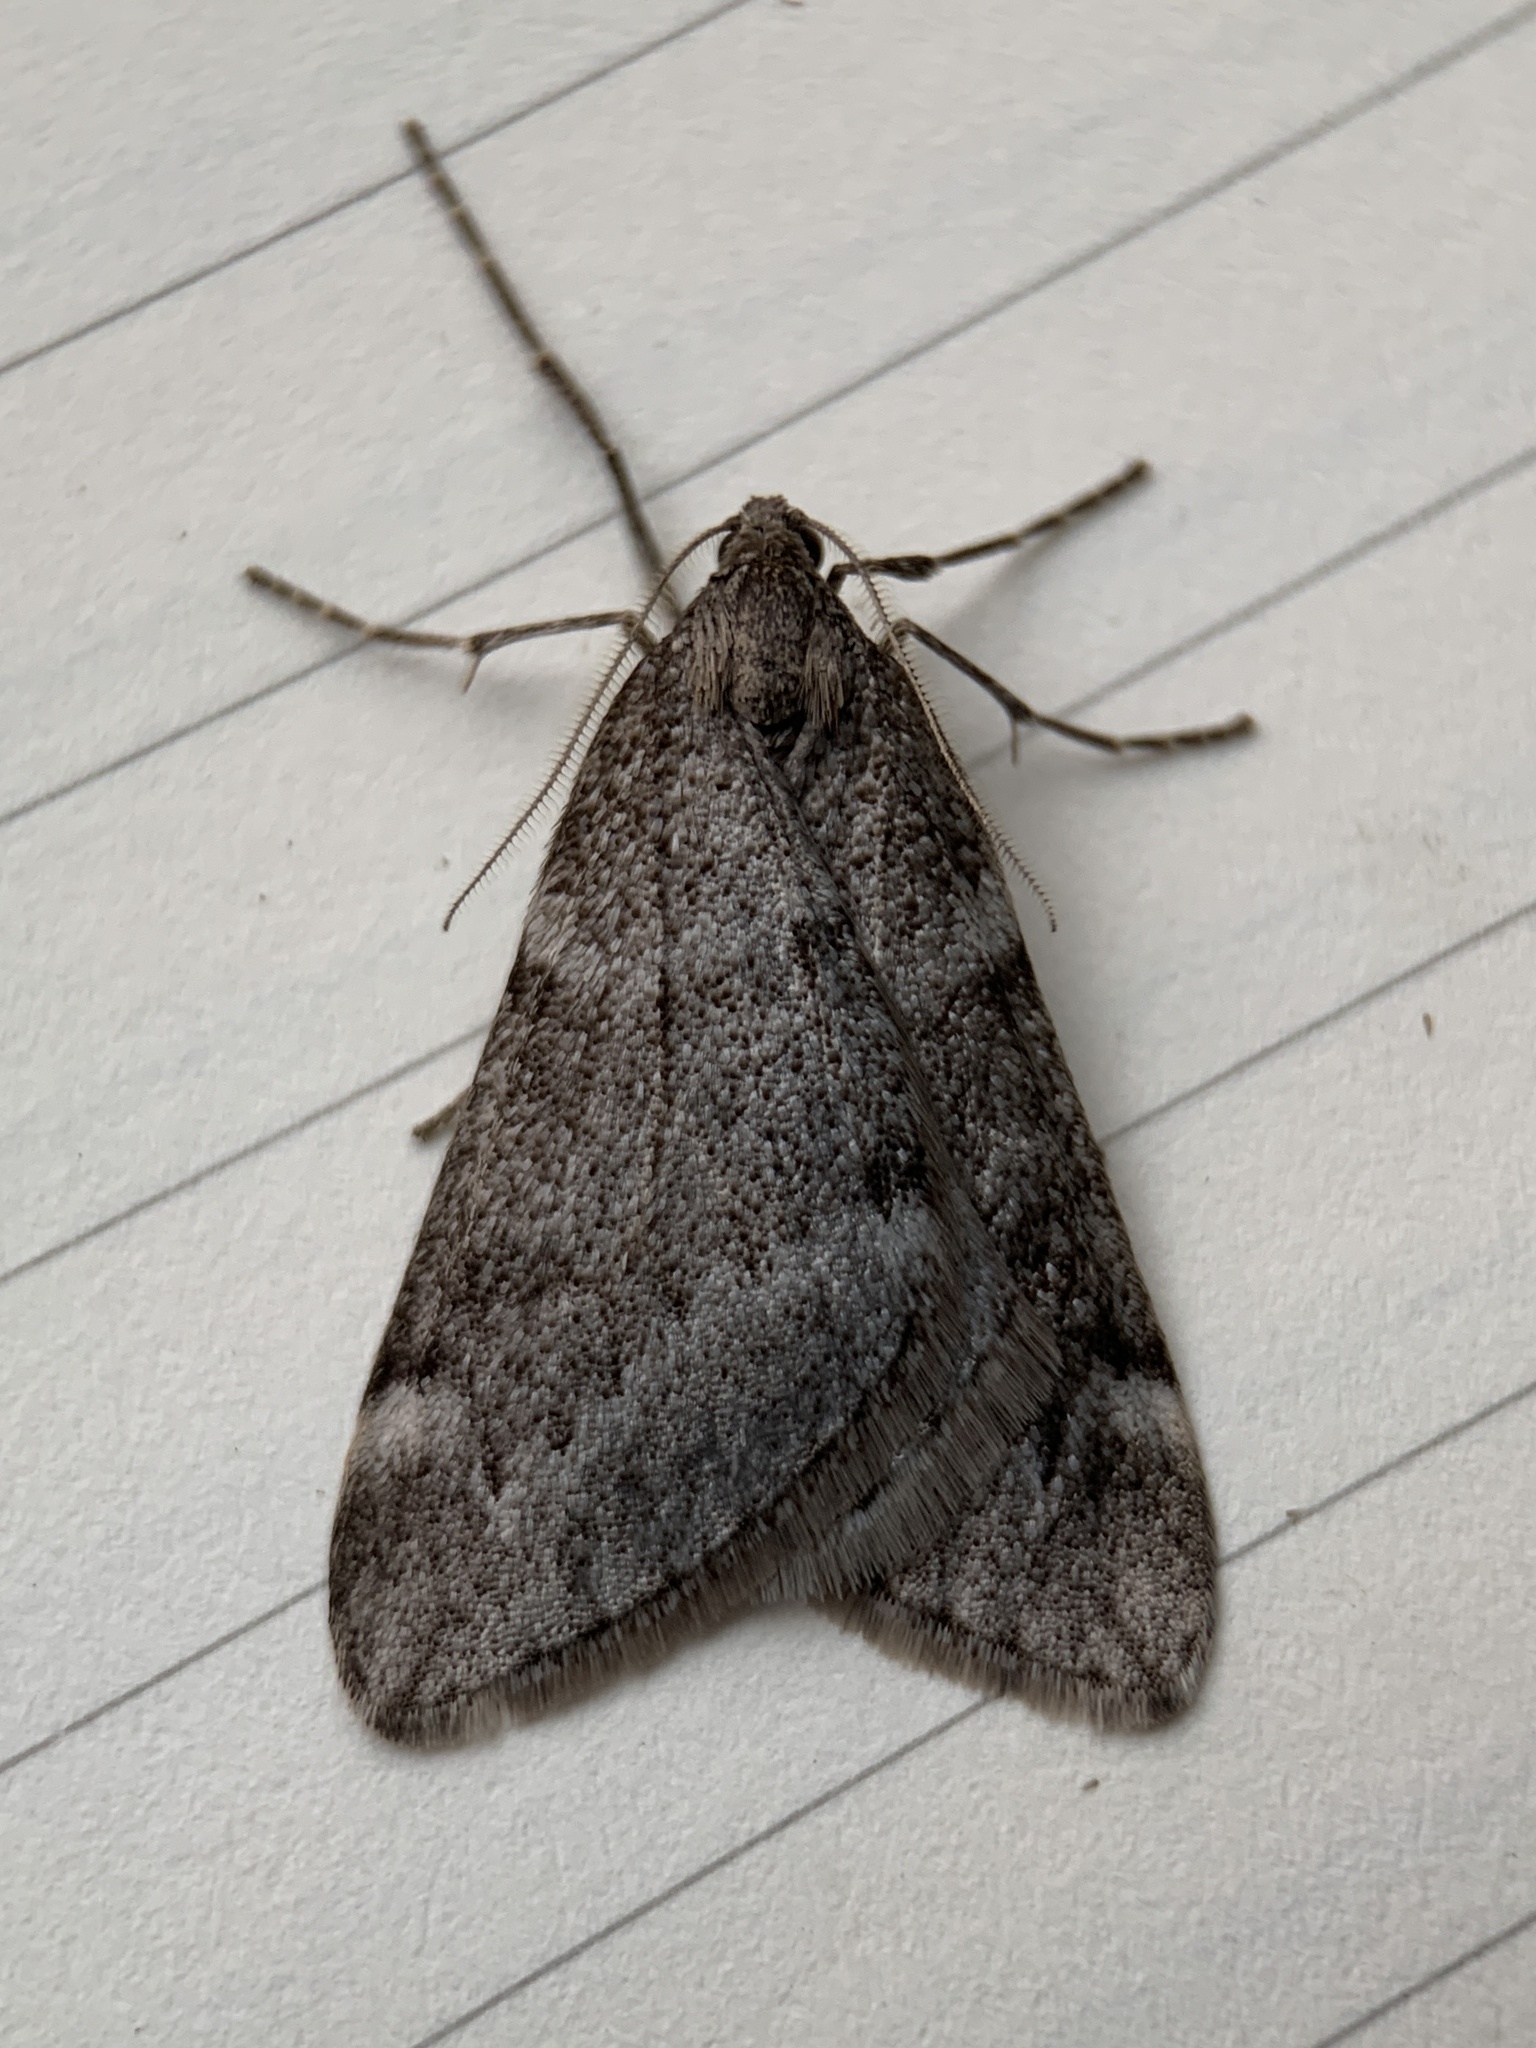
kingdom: Animalia
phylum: Arthropoda
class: Insecta
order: Lepidoptera
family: Geometridae
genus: Alsophila
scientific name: Alsophila pometaria
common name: Fall cankerworm
